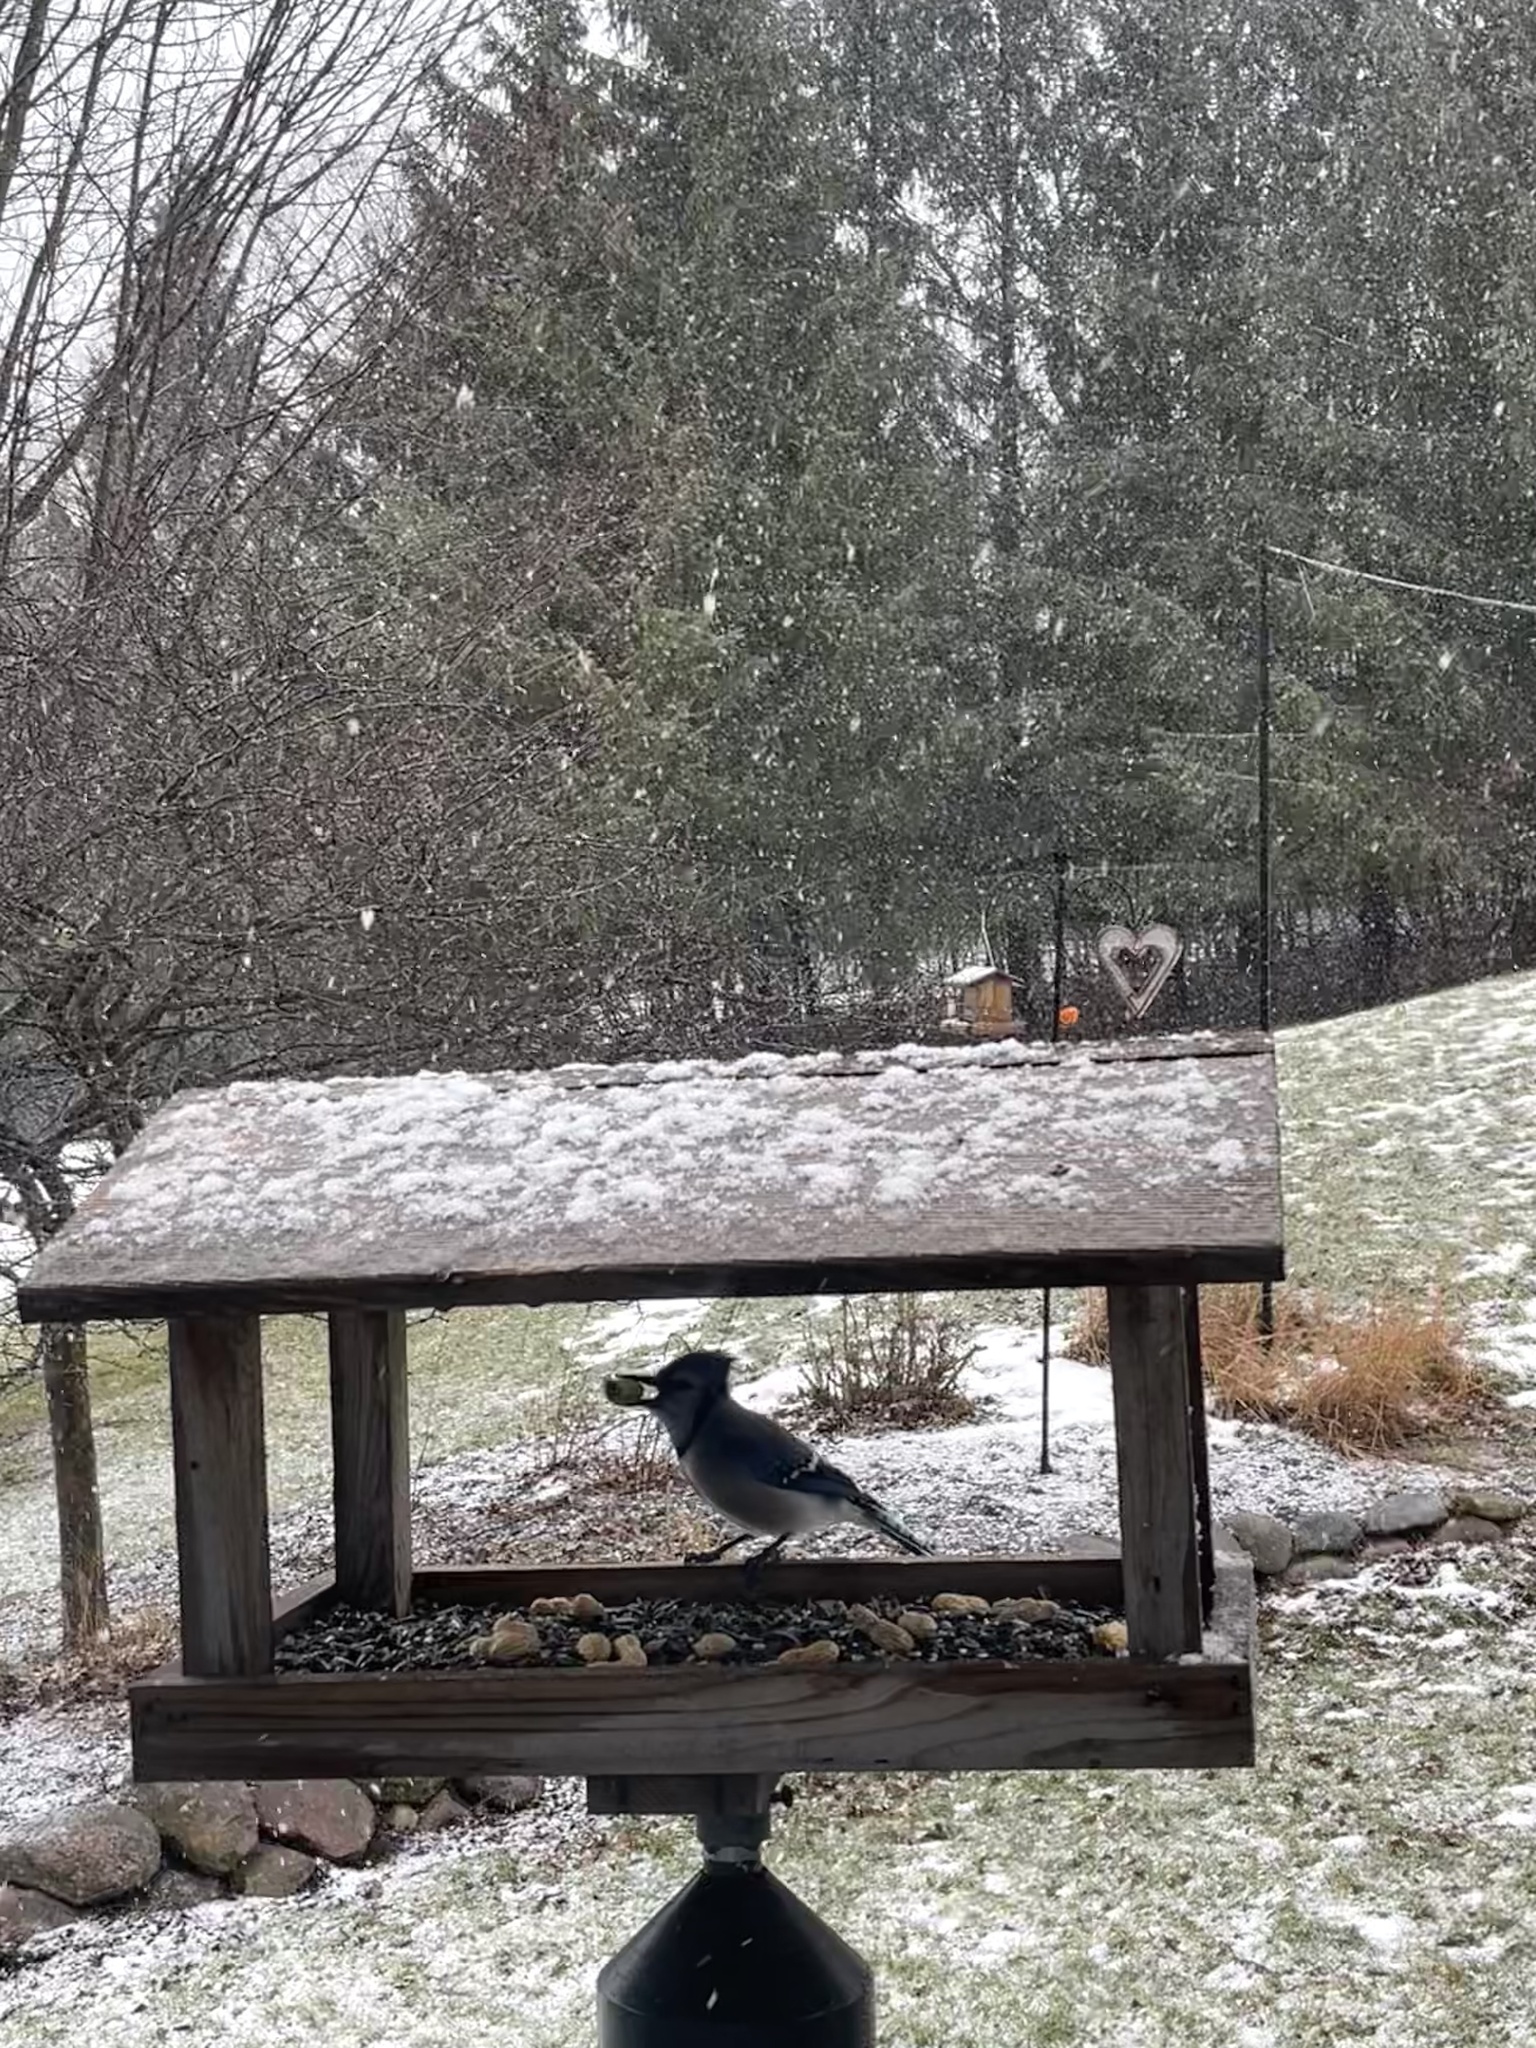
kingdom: Animalia
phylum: Chordata
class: Aves
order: Passeriformes
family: Corvidae
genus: Cyanocitta
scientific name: Cyanocitta cristata
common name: Blue jay
